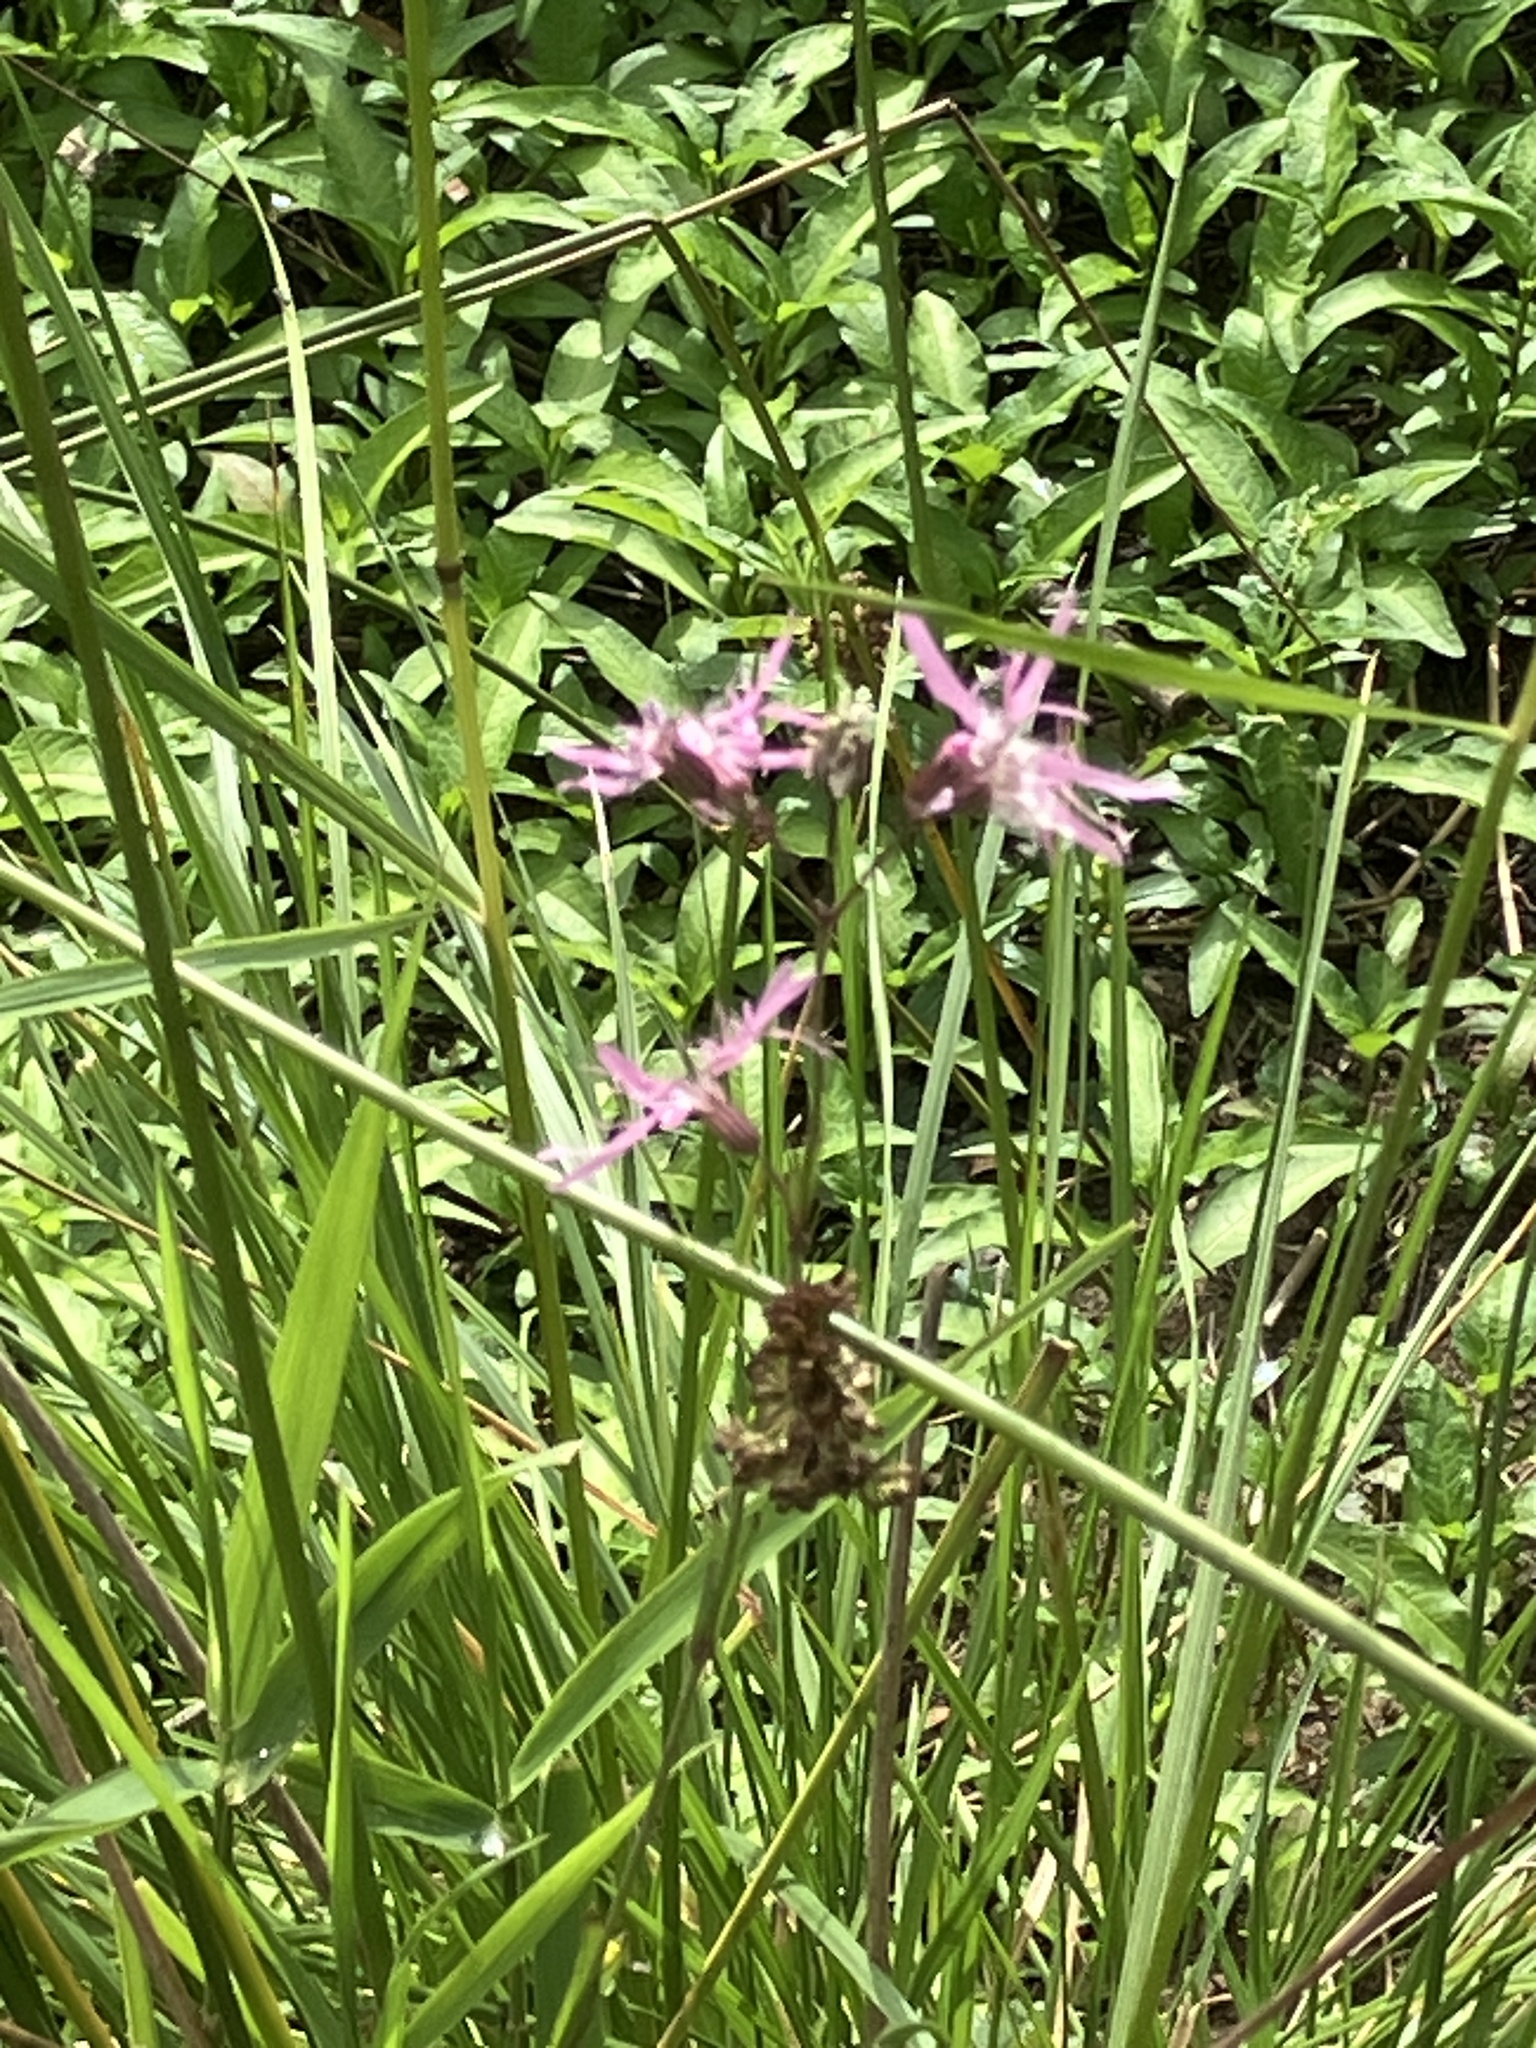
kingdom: Plantae
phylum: Tracheophyta
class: Magnoliopsida
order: Caryophyllales
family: Caryophyllaceae
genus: Silene
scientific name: Silene flos-cuculi
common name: Ragged-robin
